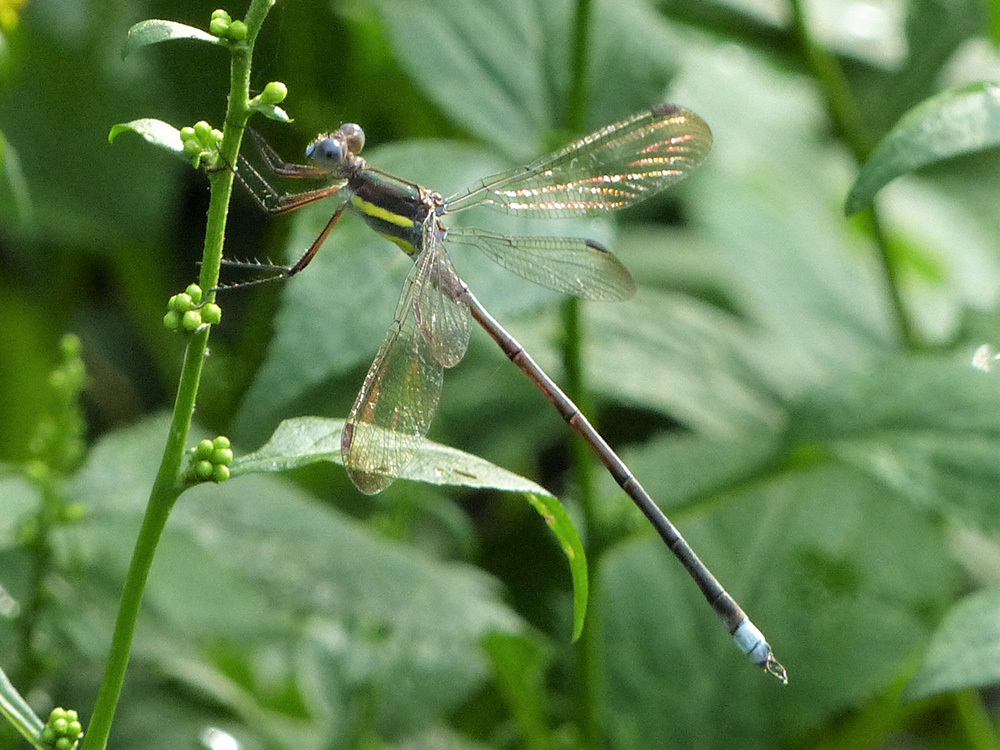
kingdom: Animalia
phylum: Arthropoda
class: Insecta
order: Odonata
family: Lestidae
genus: Archilestes
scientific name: Archilestes grandis
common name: Great spreadwing
